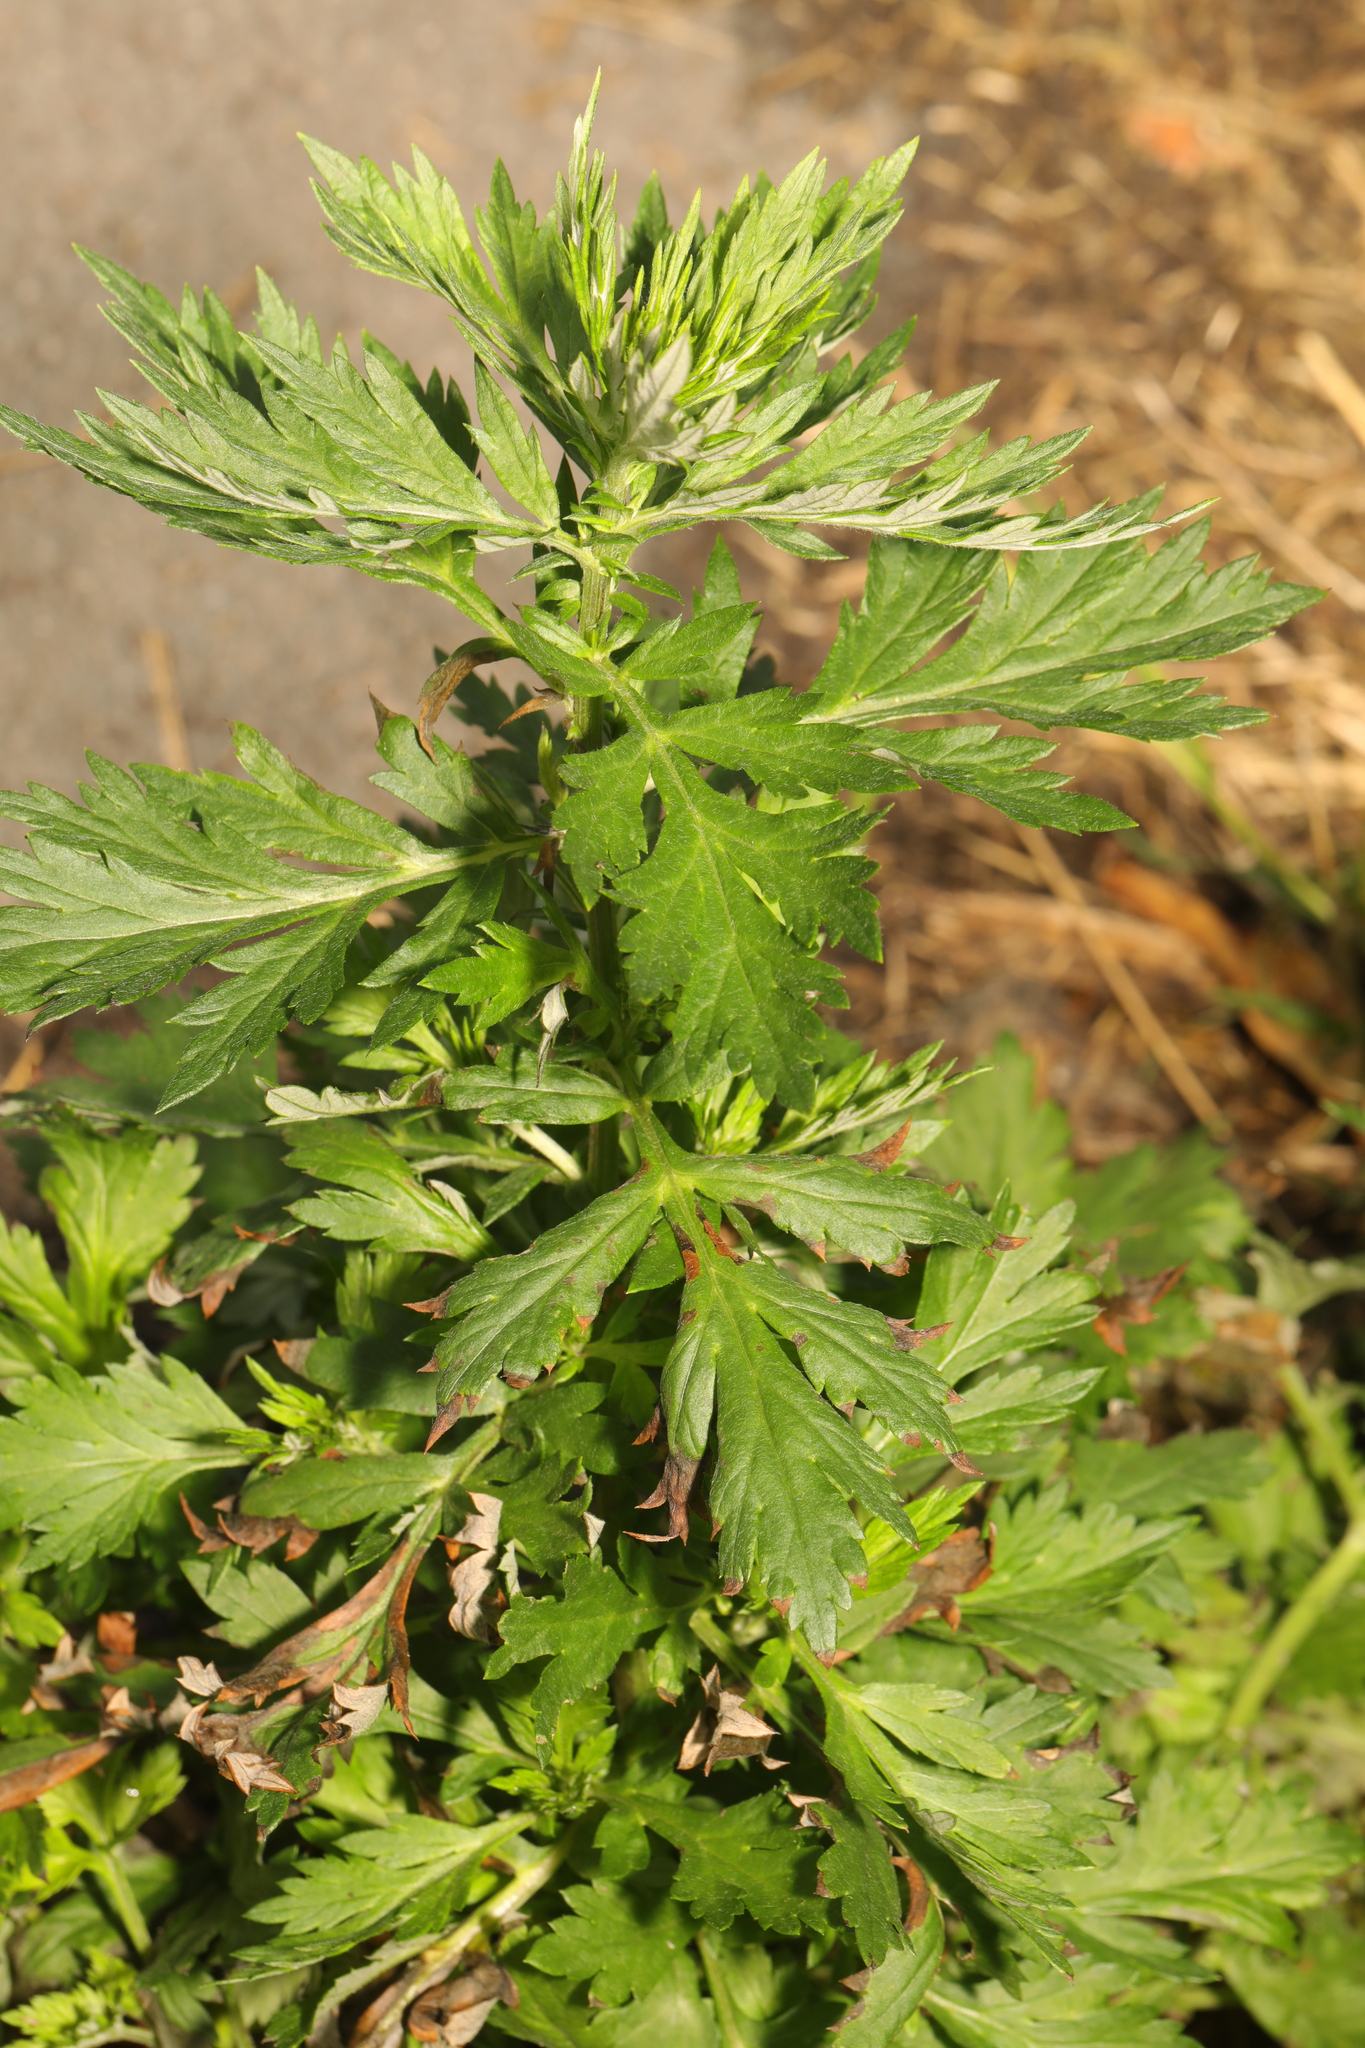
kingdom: Plantae
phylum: Tracheophyta
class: Magnoliopsida
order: Asterales
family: Asteraceae
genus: Artemisia
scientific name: Artemisia vulgaris
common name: Mugwort
